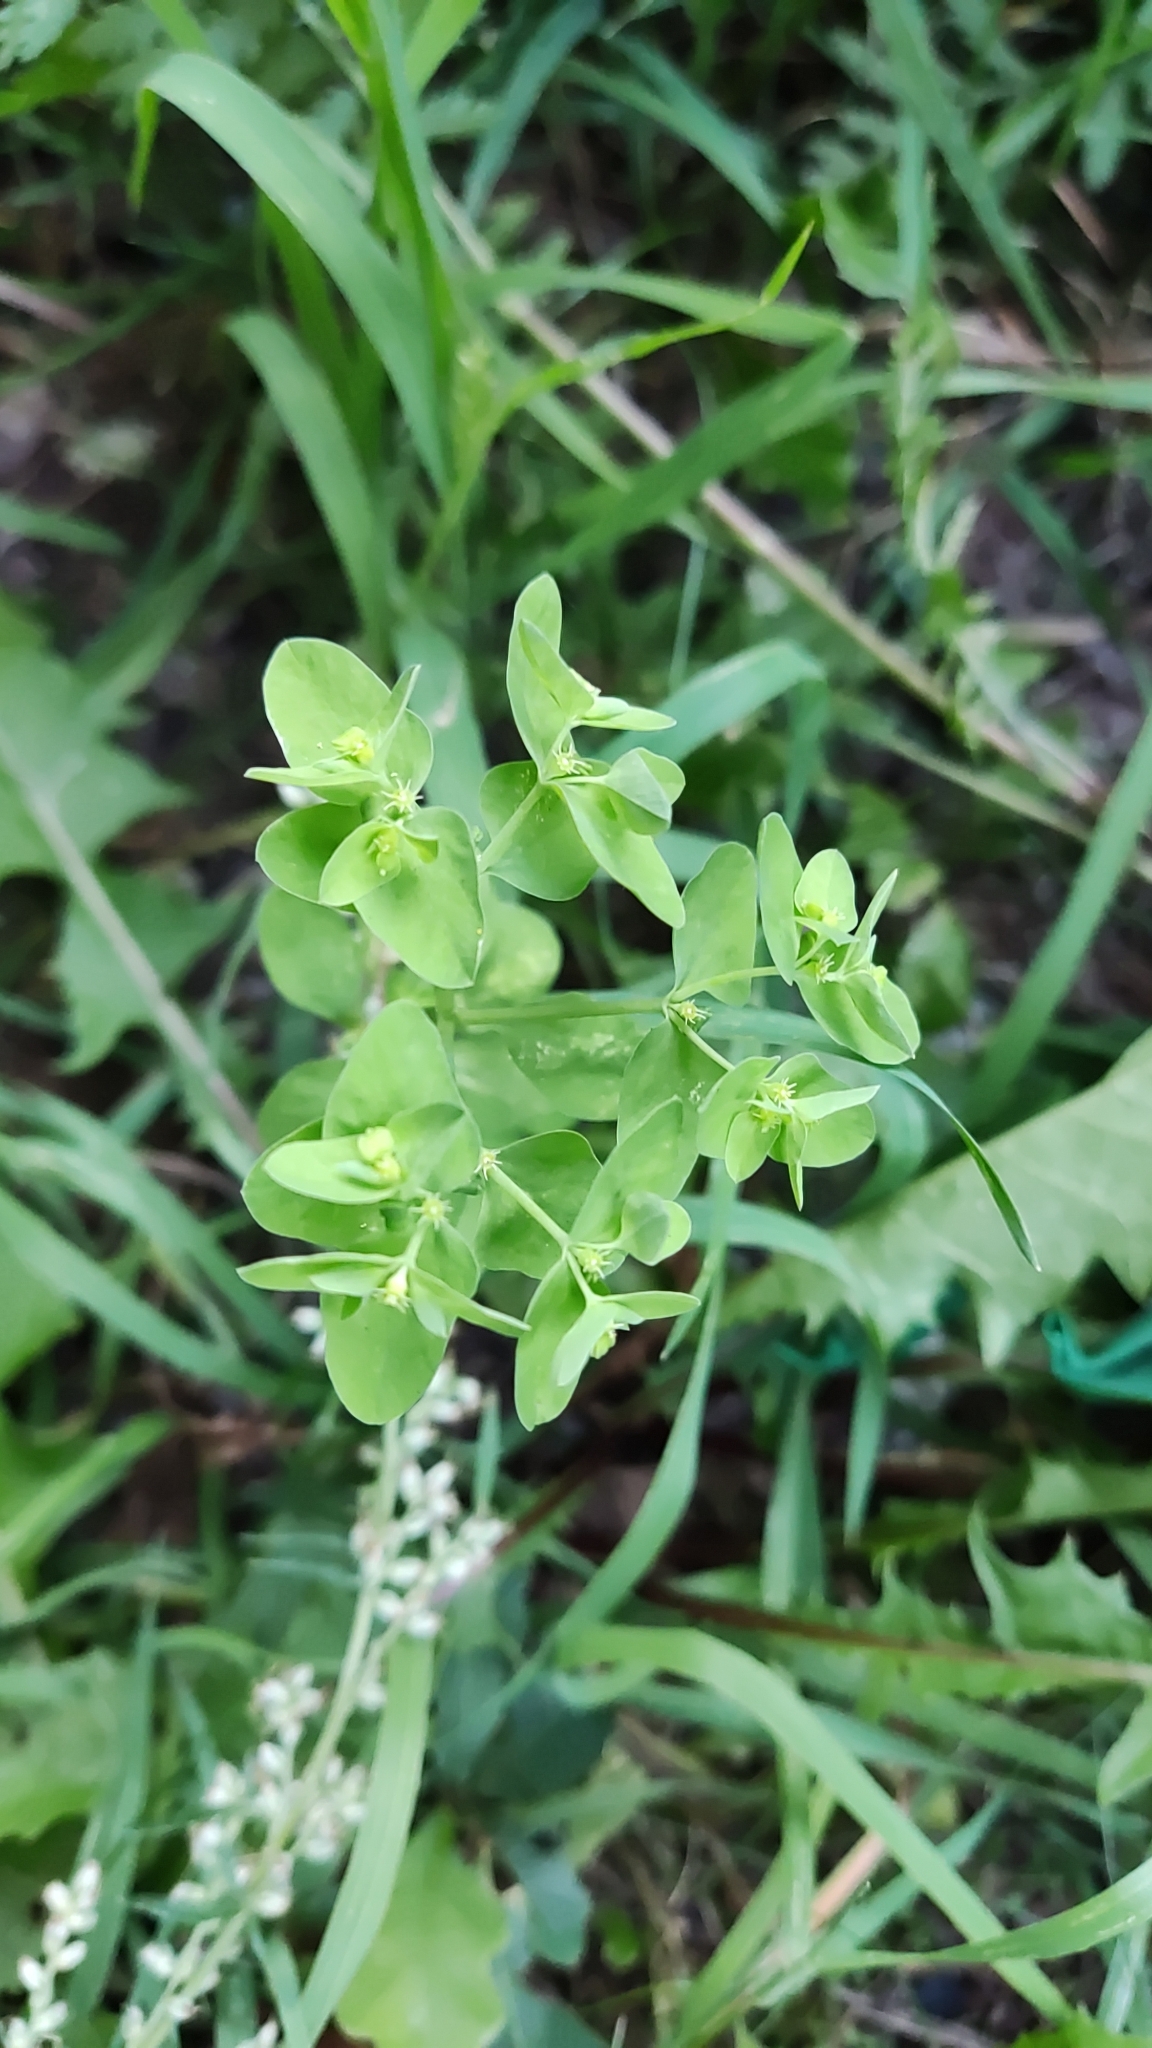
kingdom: Plantae
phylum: Tracheophyta
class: Magnoliopsida
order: Malpighiales
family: Euphorbiaceae
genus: Euphorbia
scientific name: Euphorbia peplus
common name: Petty spurge
